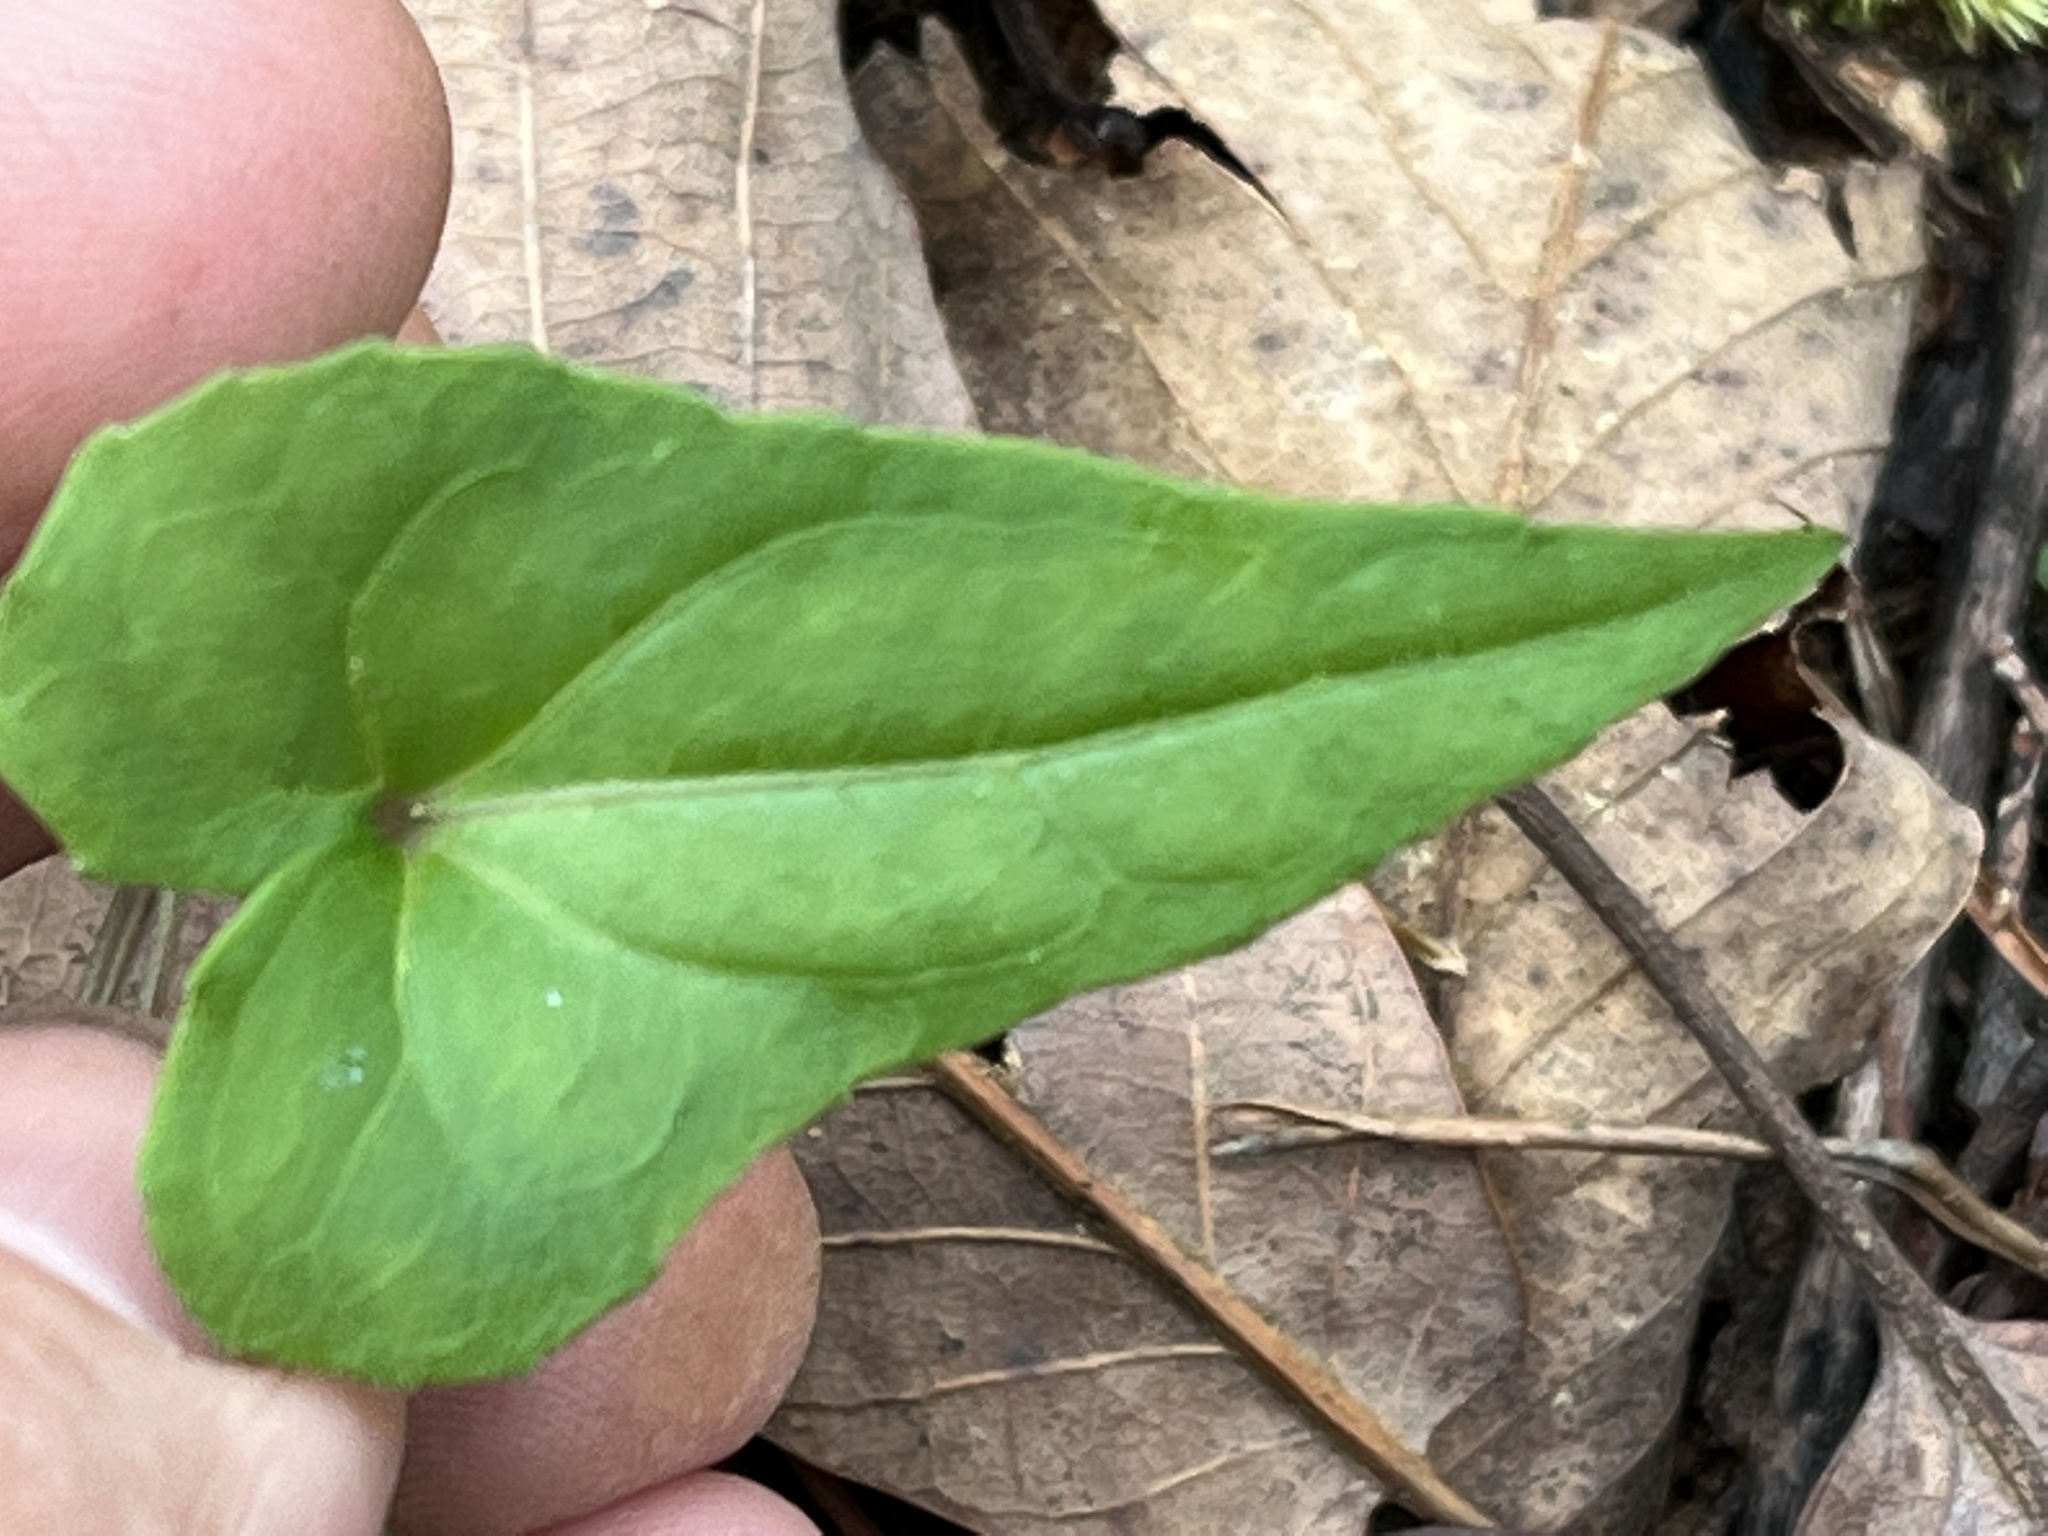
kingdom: Plantae
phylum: Tracheophyta
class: Magnoliopsida
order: Malpighiales
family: Violaceae
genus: Viola
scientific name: Viola hastata
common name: Spear-leaf violet
